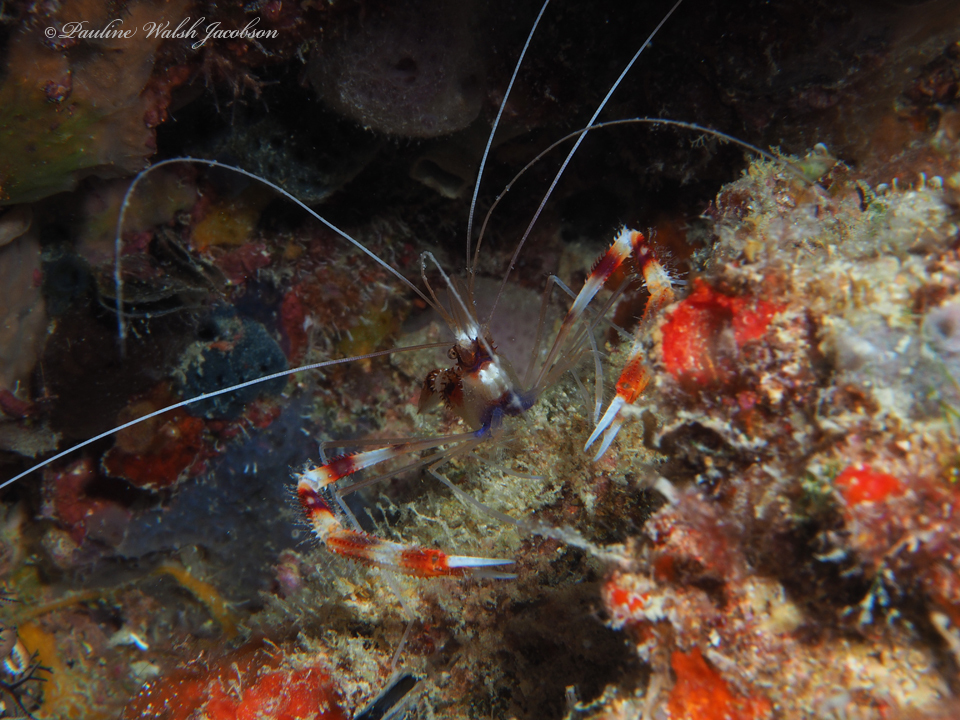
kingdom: Animalia
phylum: Arthropoda
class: Malacostraca
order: Decapoda
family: Stenopodidae
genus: Stenopus
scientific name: Stenopus hispidus
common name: Banded coral shrimp
